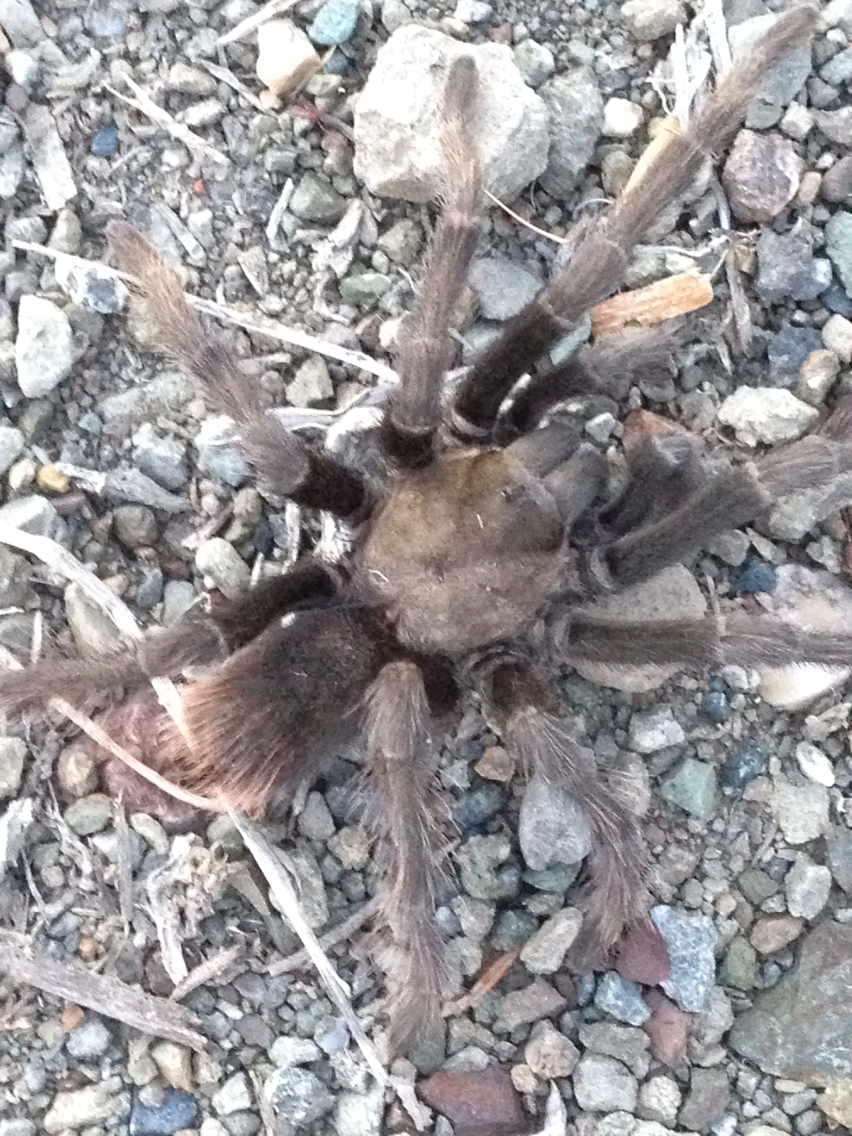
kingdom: Animalia
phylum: Arthropoda
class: Arachnida
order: Araneae
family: Theraphosidae
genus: Aphonopelma
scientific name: Aphonopelma iodius
